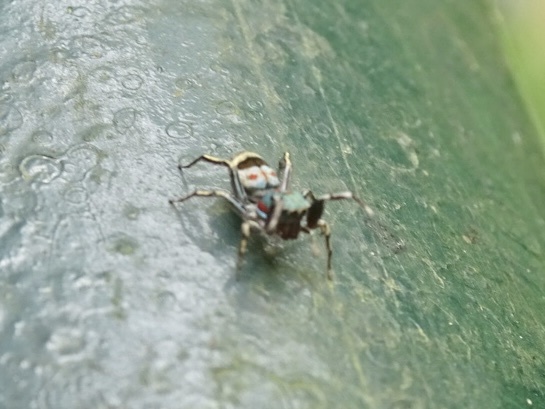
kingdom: Animalia
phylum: Arthropoda
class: Arachnida
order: Araneae
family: Salticidae
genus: Siler
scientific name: Siler collingwoodi
